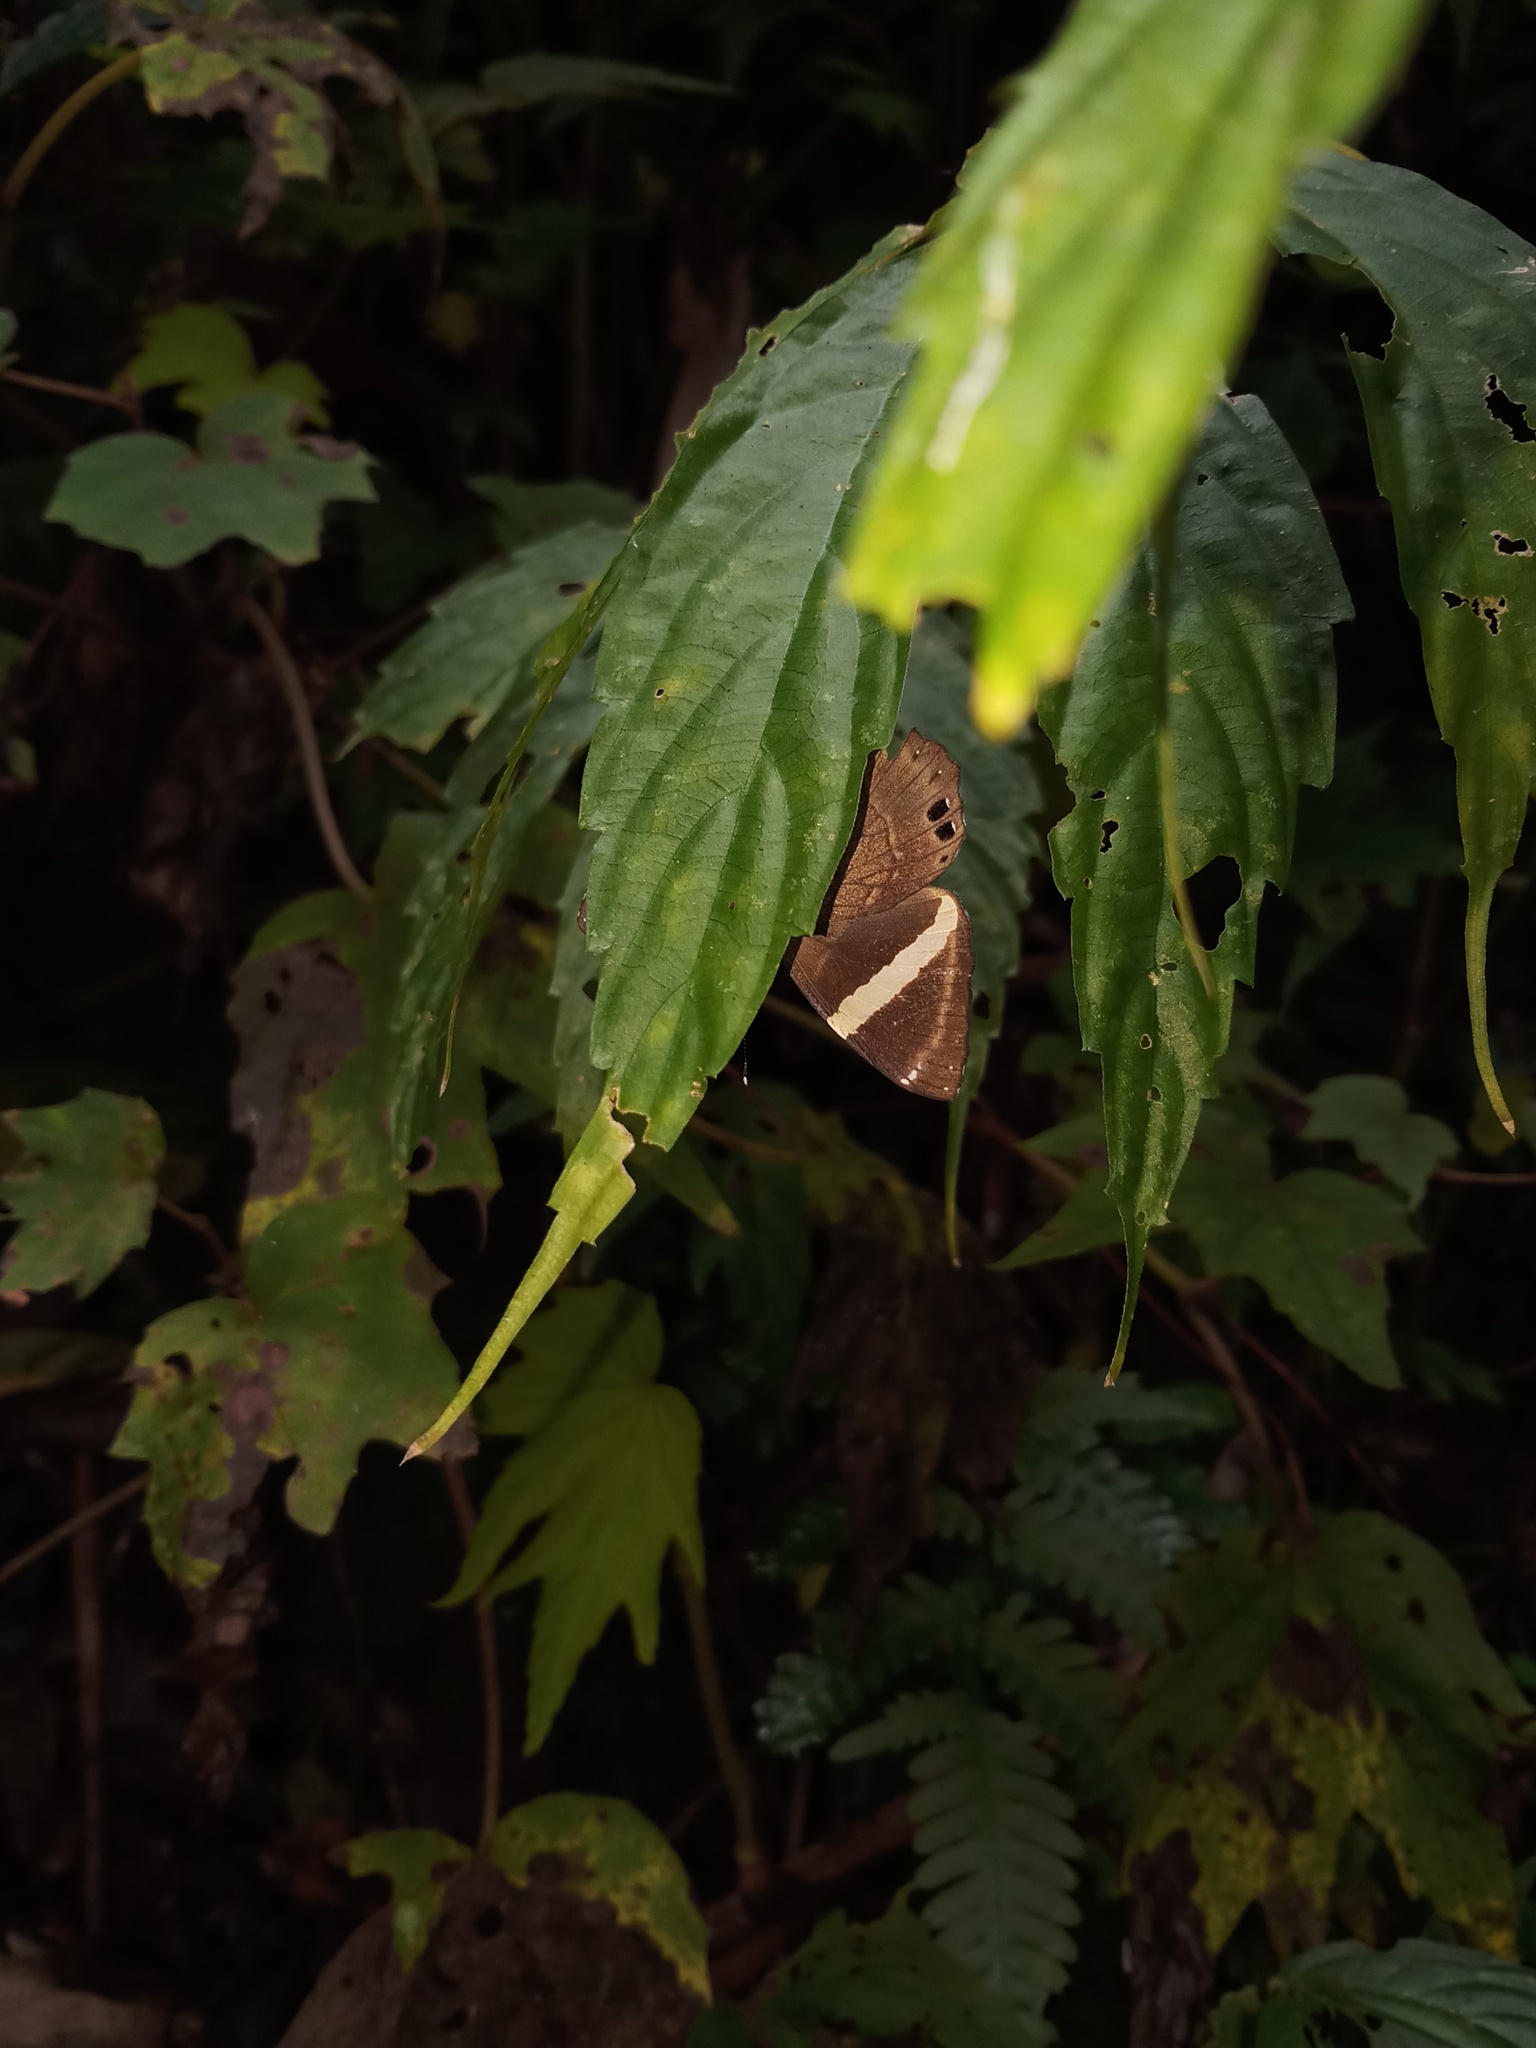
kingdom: Animalia
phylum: Arthropoda
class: Insecta
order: Lepidoptera
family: Lycaenidae
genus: Abisara
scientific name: Abisara fylla
